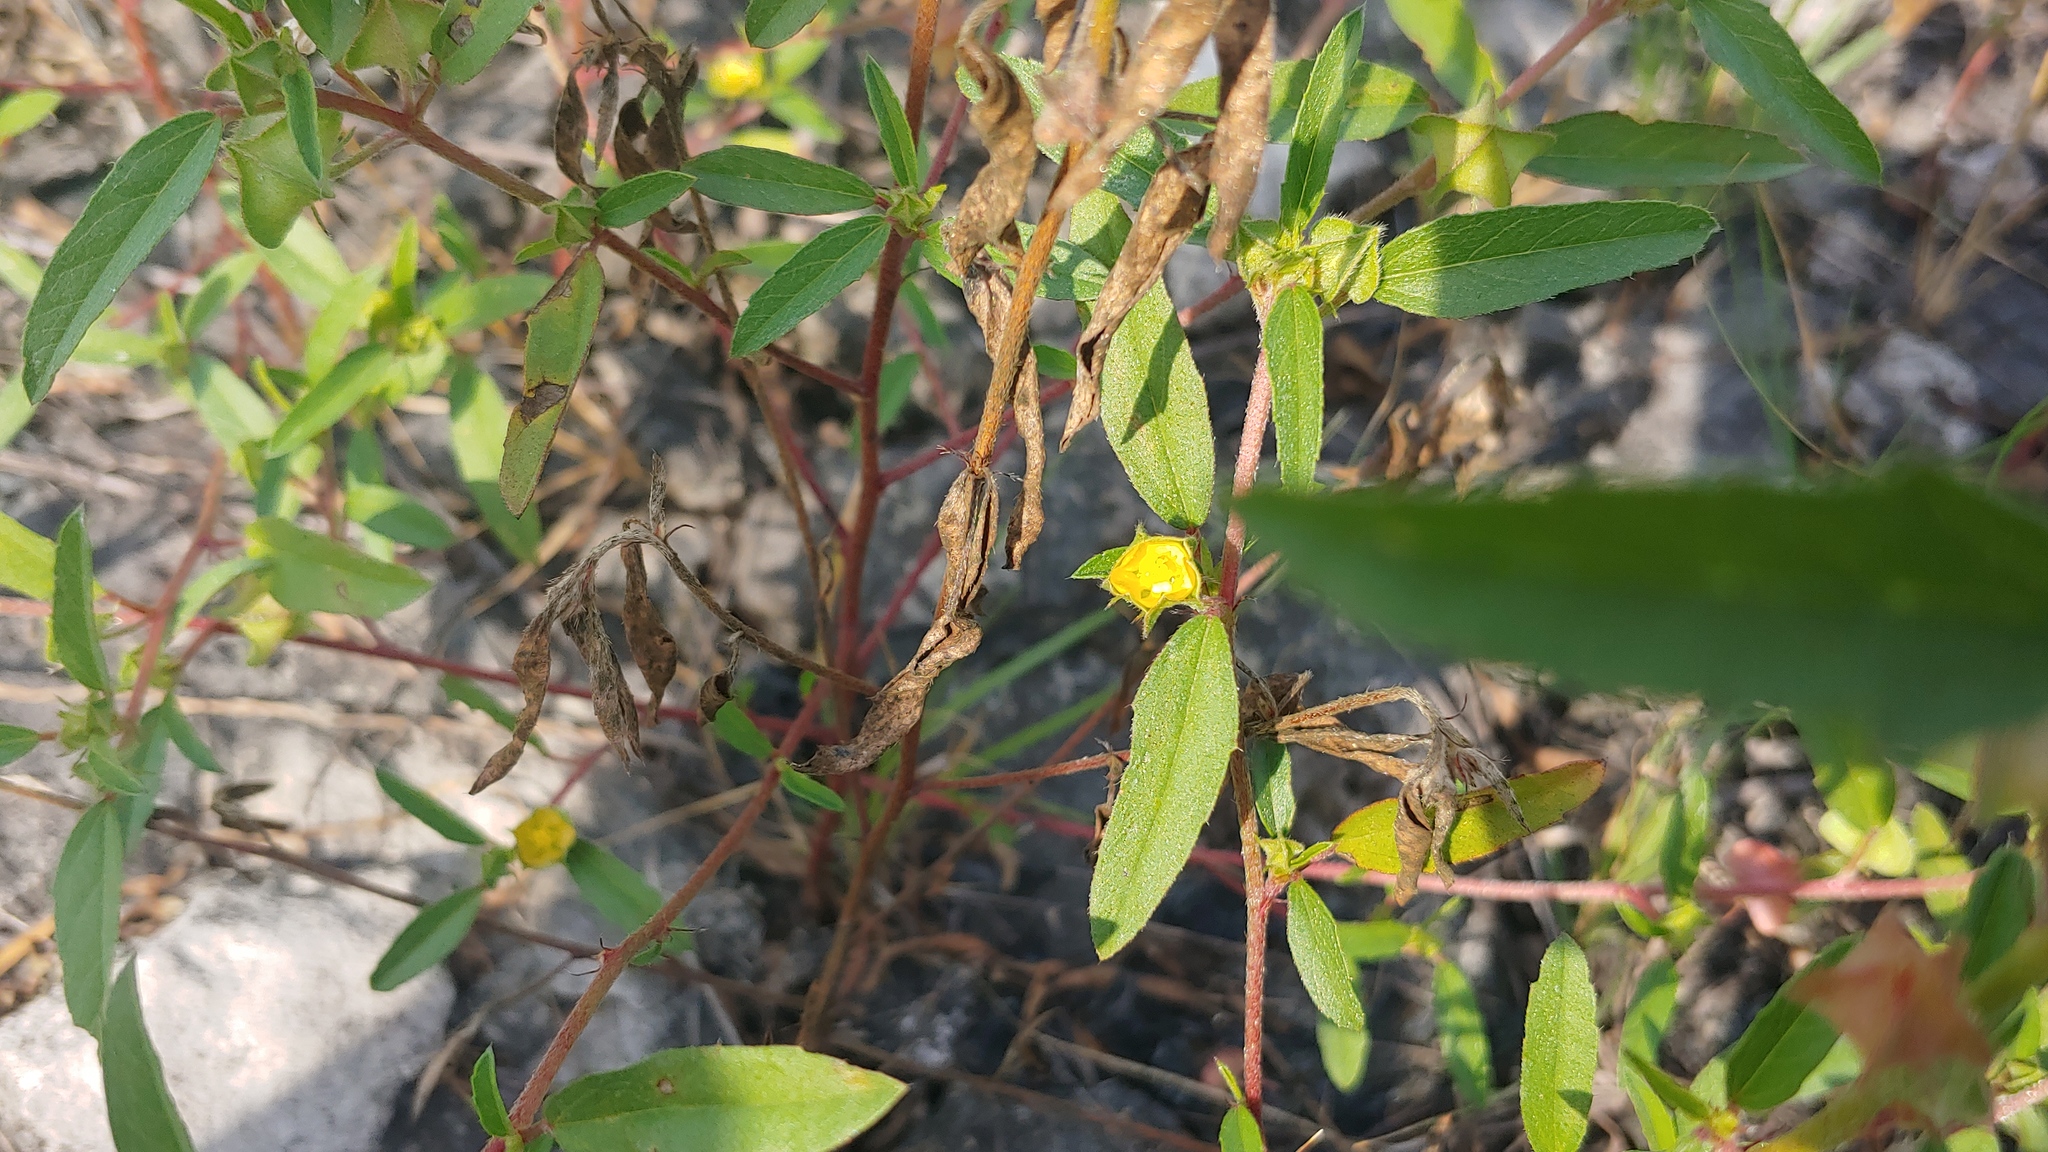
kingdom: Plantae
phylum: Tracheophyta
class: Magnoliopsida
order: Malvales
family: Malvaceae
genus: Malvastrum
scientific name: Malvastrum hispidum
